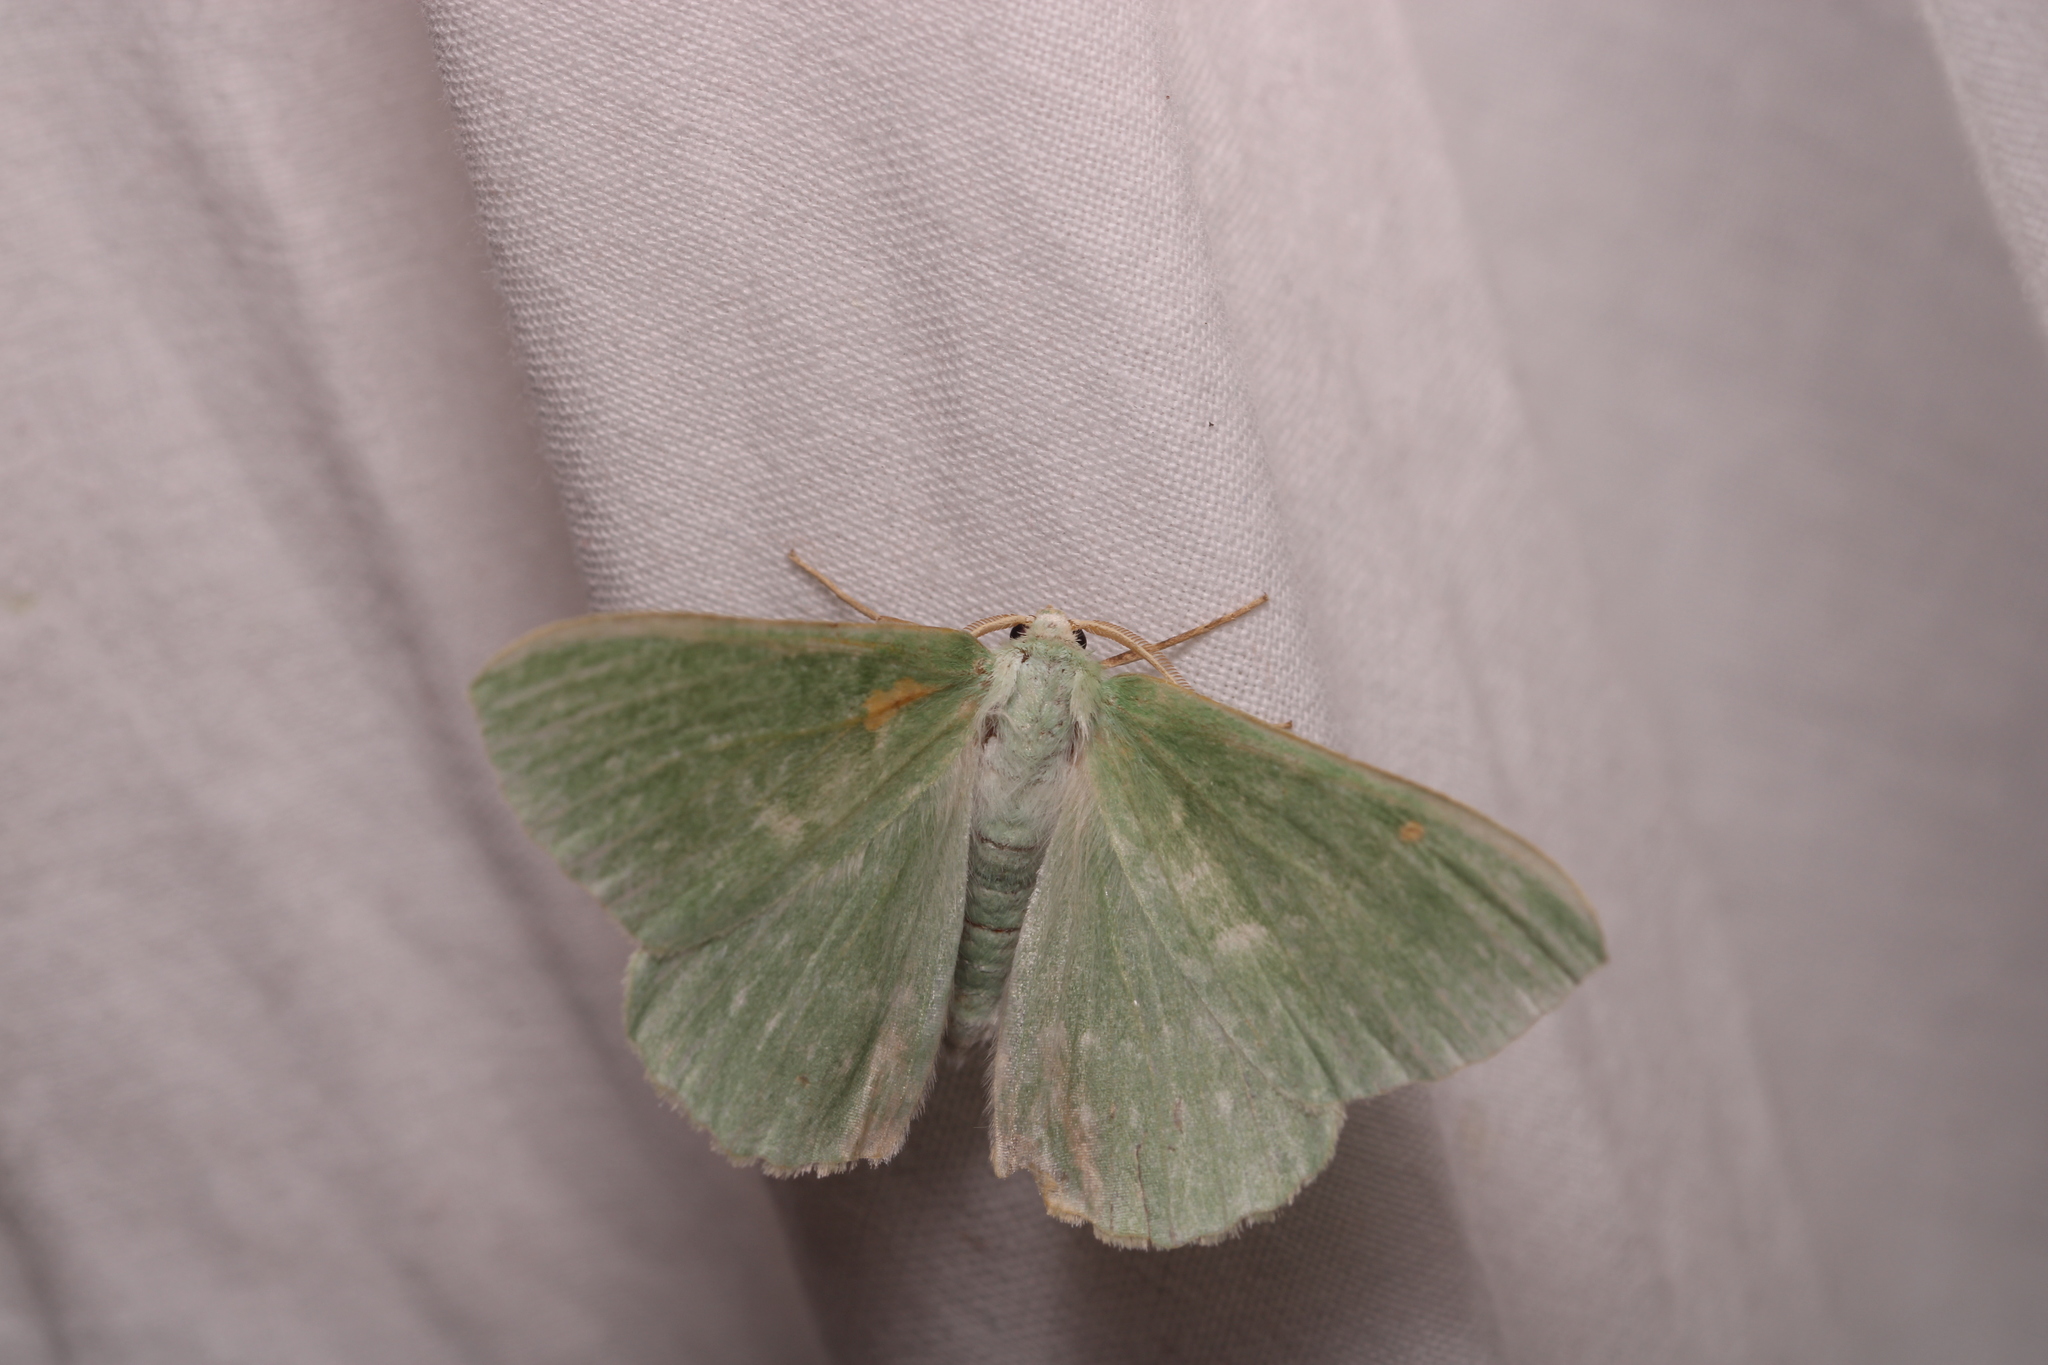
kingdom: Animalia
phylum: Arthropoda
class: Insecta
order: Lepidoptera
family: Geometridae
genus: Geometra
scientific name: Geometra papilionaria
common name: Large emerald
